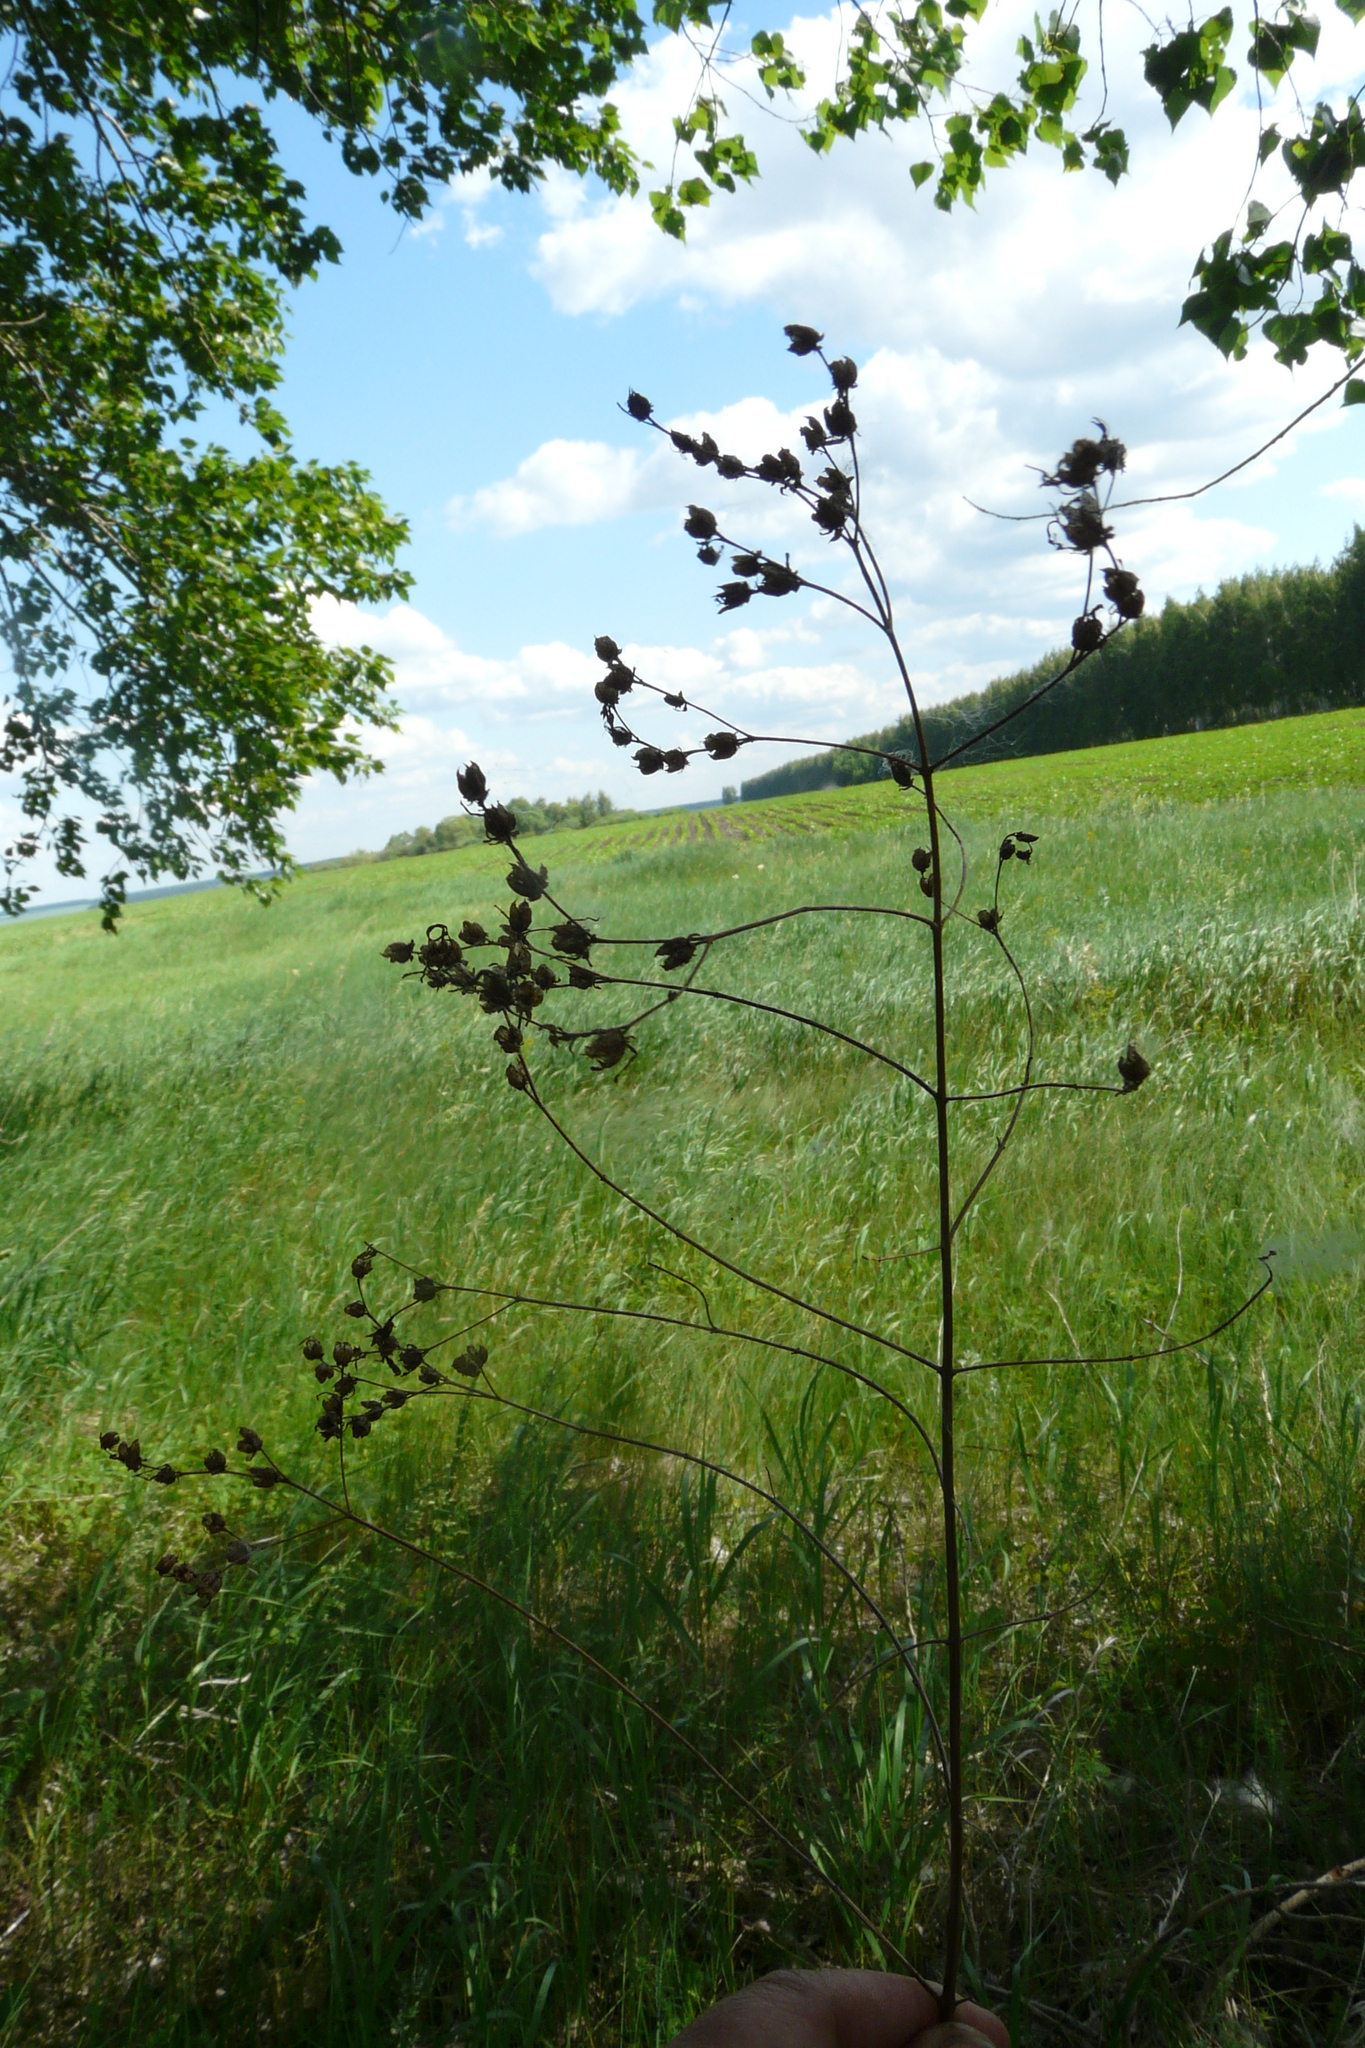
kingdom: Plantae
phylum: Tracheophyta
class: Magnoliopsida
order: Malpighiales
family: Hypericaceae
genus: Hypericum
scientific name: Hypericum perforatum
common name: Common st. johnswort
